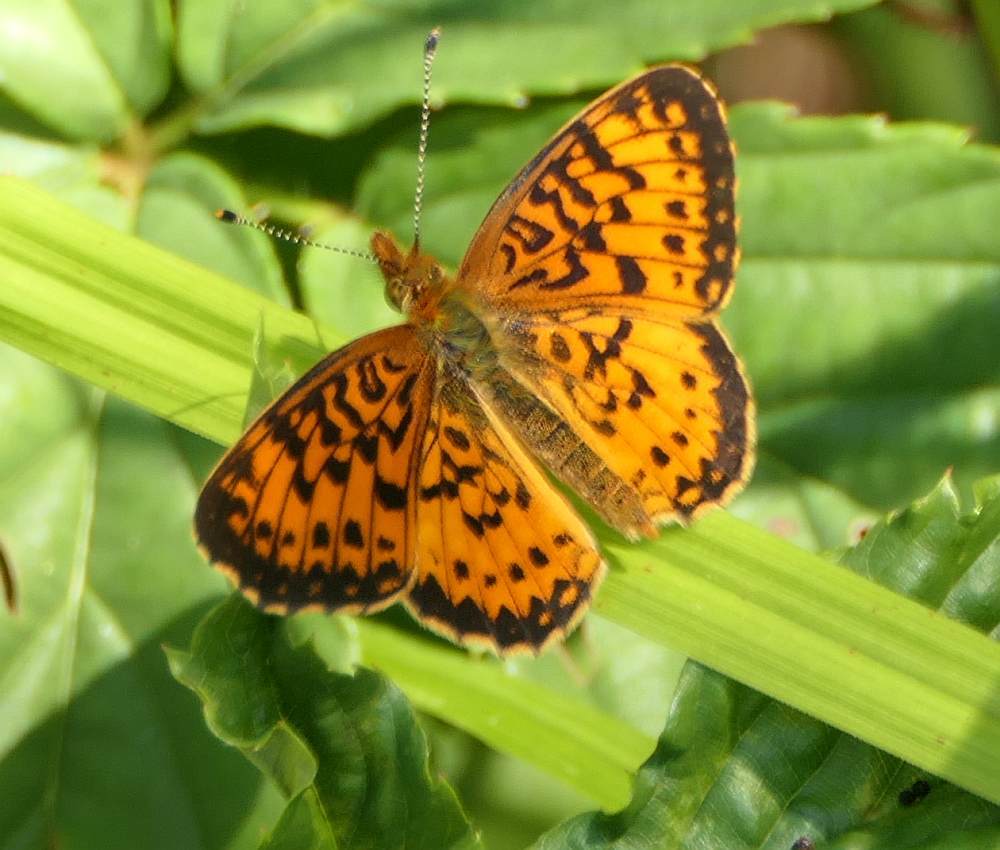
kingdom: Animalia
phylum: Arthropoda
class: Insecta
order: Lepidoptera
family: Nymphalidae
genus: Boloria
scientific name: Boloria
